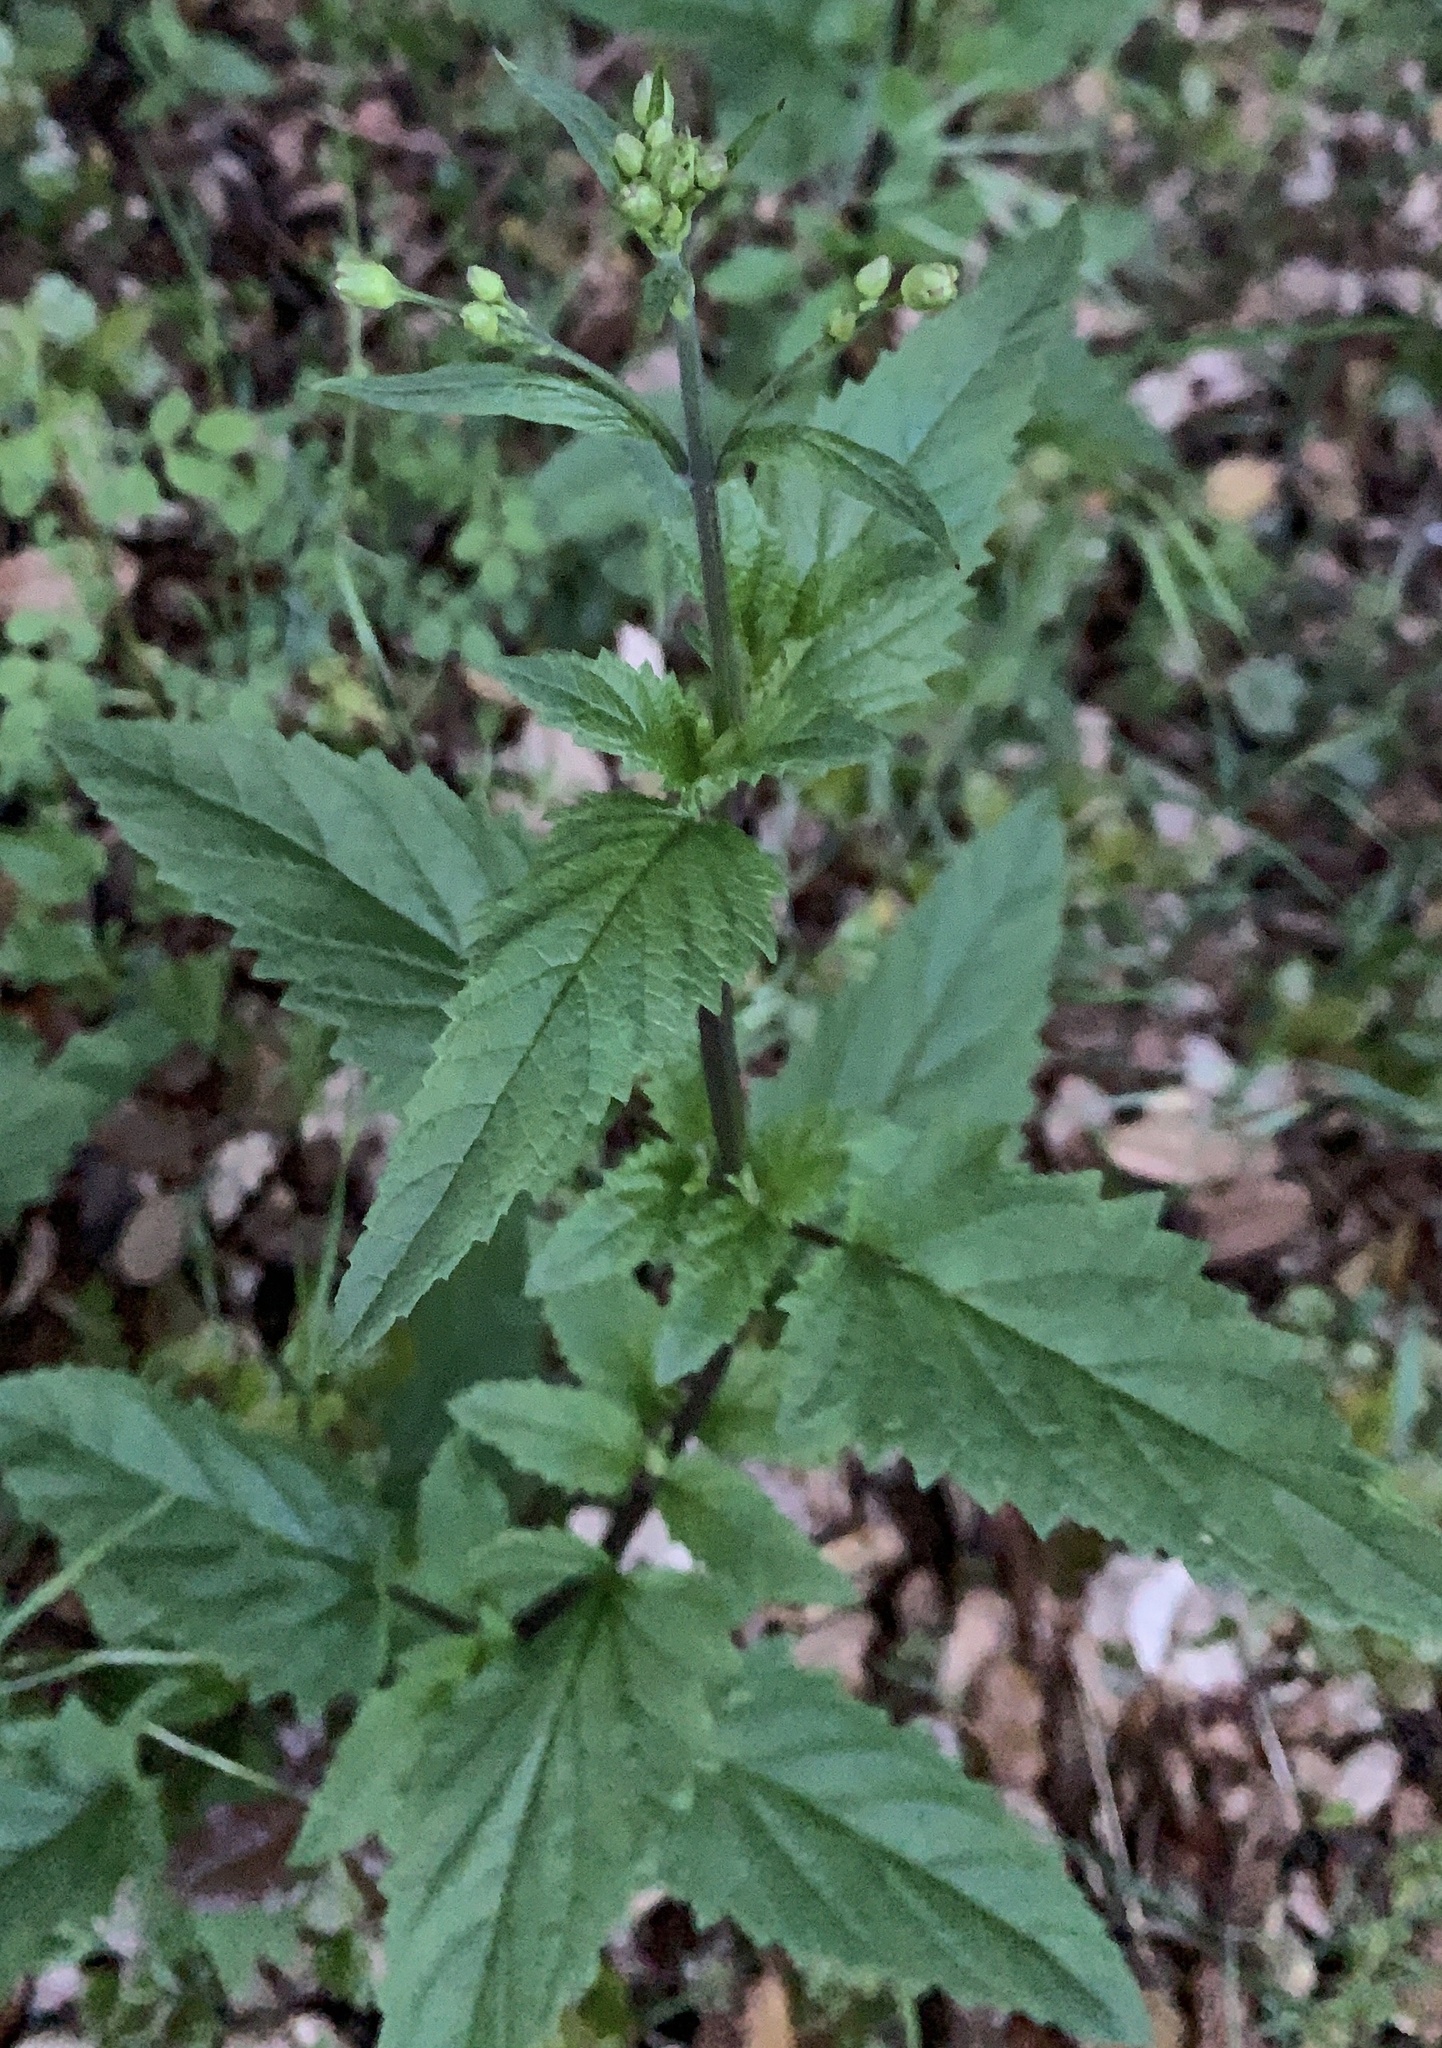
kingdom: Plantae
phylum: Tracheophyta
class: Magnoliopsida
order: Lamiales
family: Scrophulariaceae
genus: Scrophularia
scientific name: Scrophularia californica
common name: California figwort
